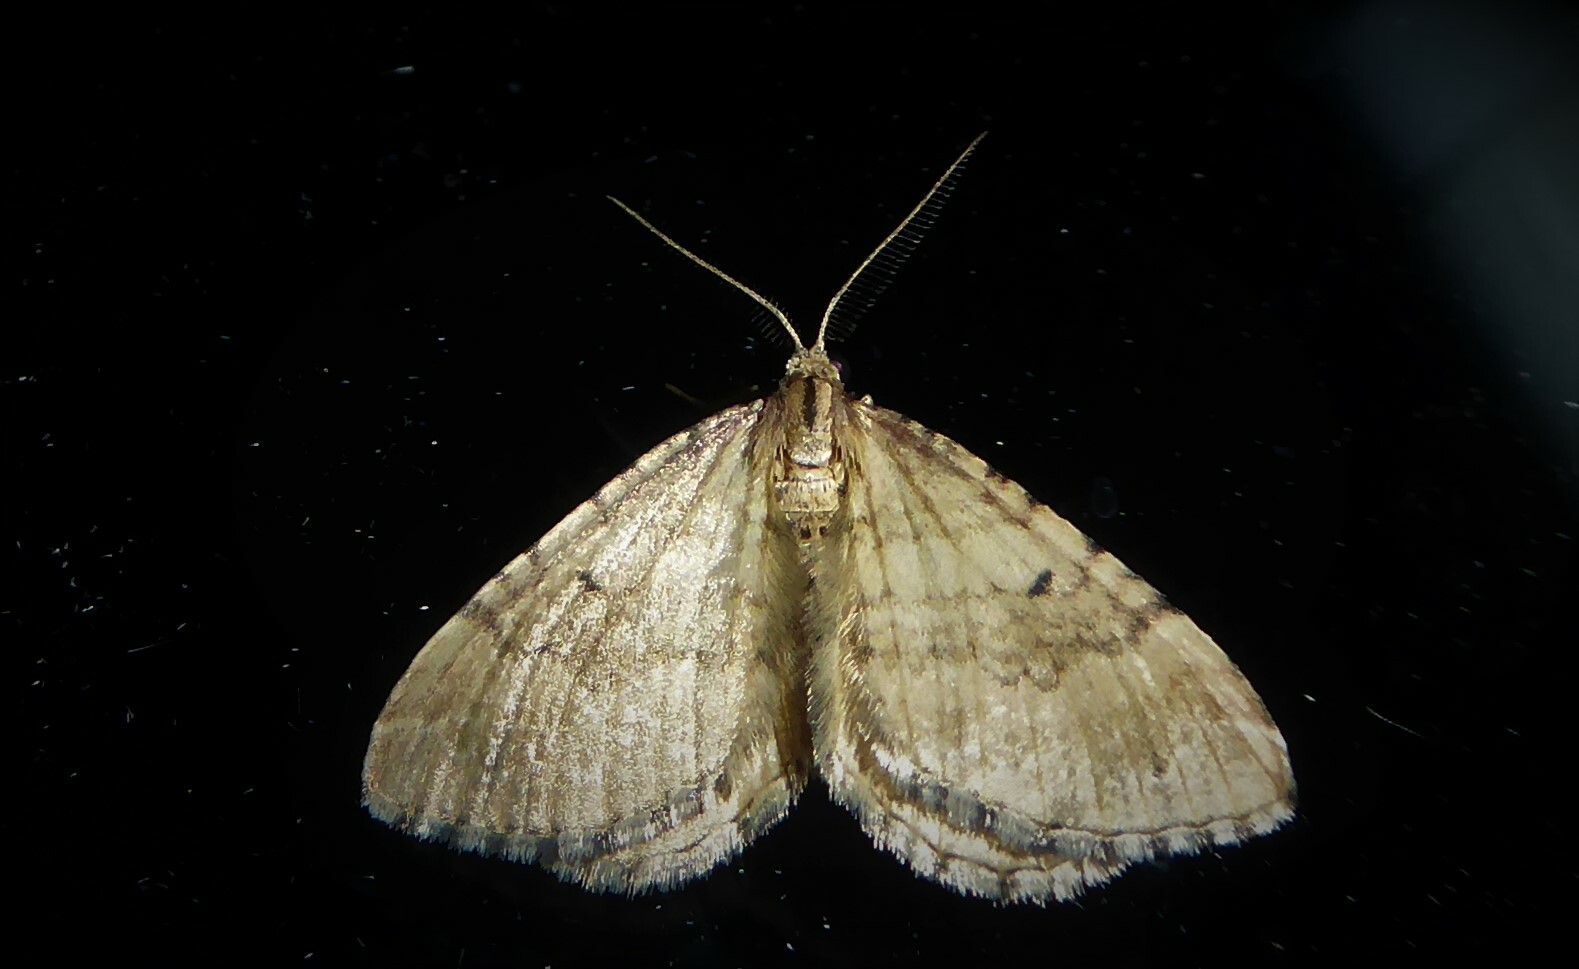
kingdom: Animalia
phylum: Arthropoda
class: Insecta
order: Lepidoptera
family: Geometridae
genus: Asaphodes
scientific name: Asaphodes aegrota
